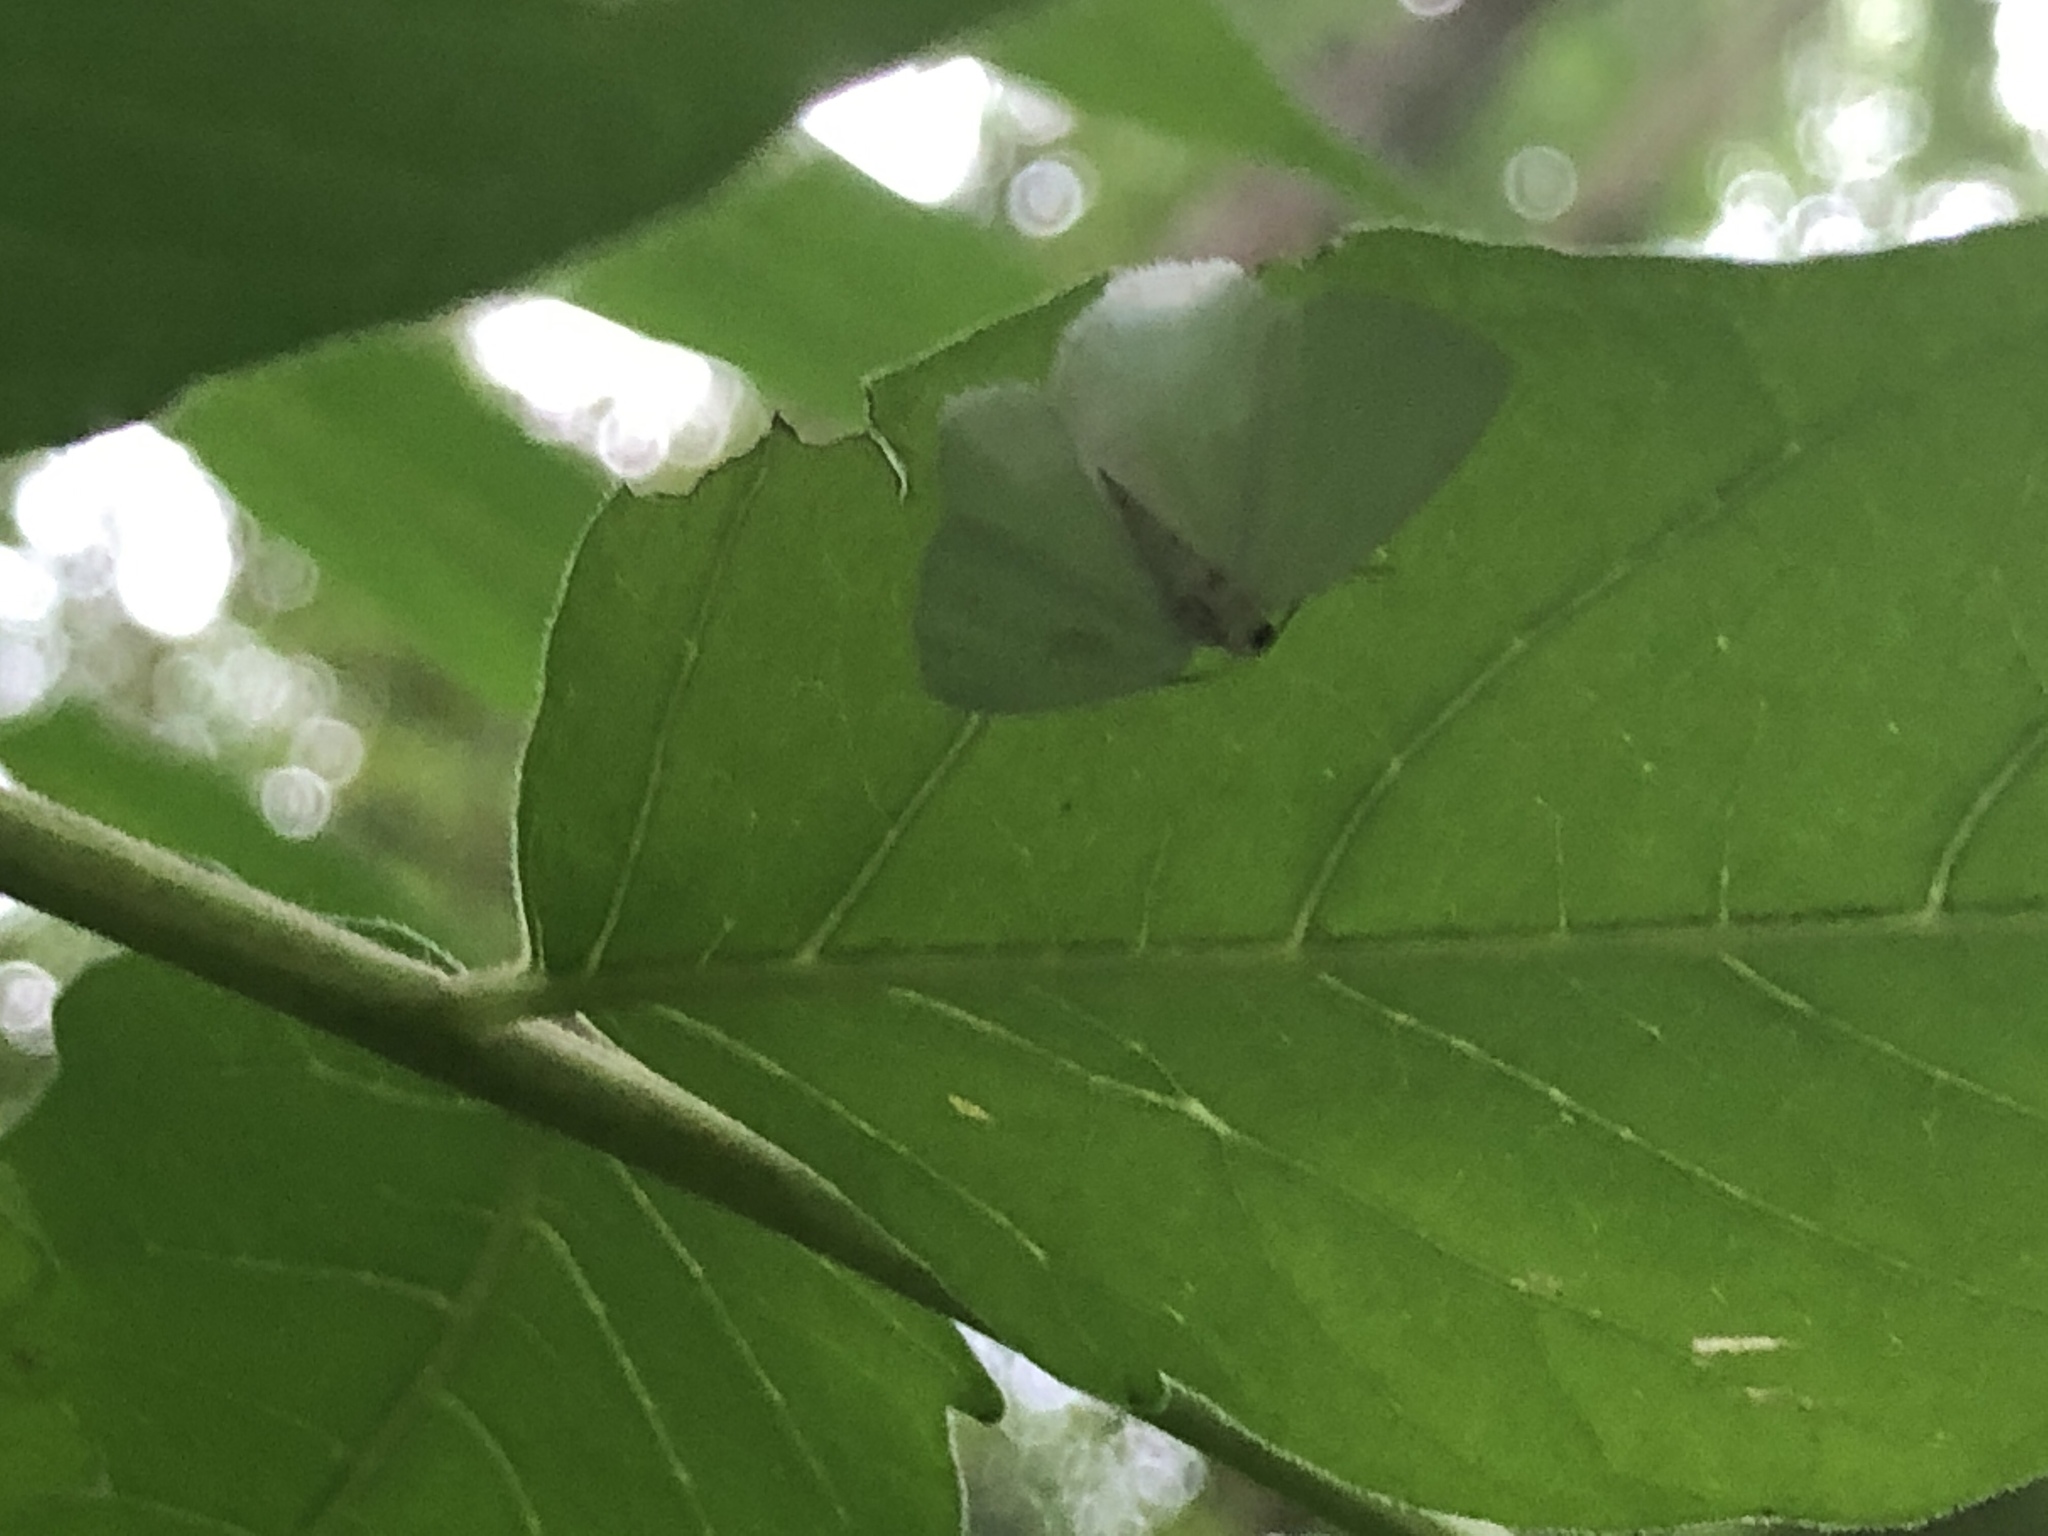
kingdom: Animalia
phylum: Arthropoda
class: Insecta
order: Lepidoptera
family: Geometridae
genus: Lomographa
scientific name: Lomographa vestaliata
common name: White spring moth
